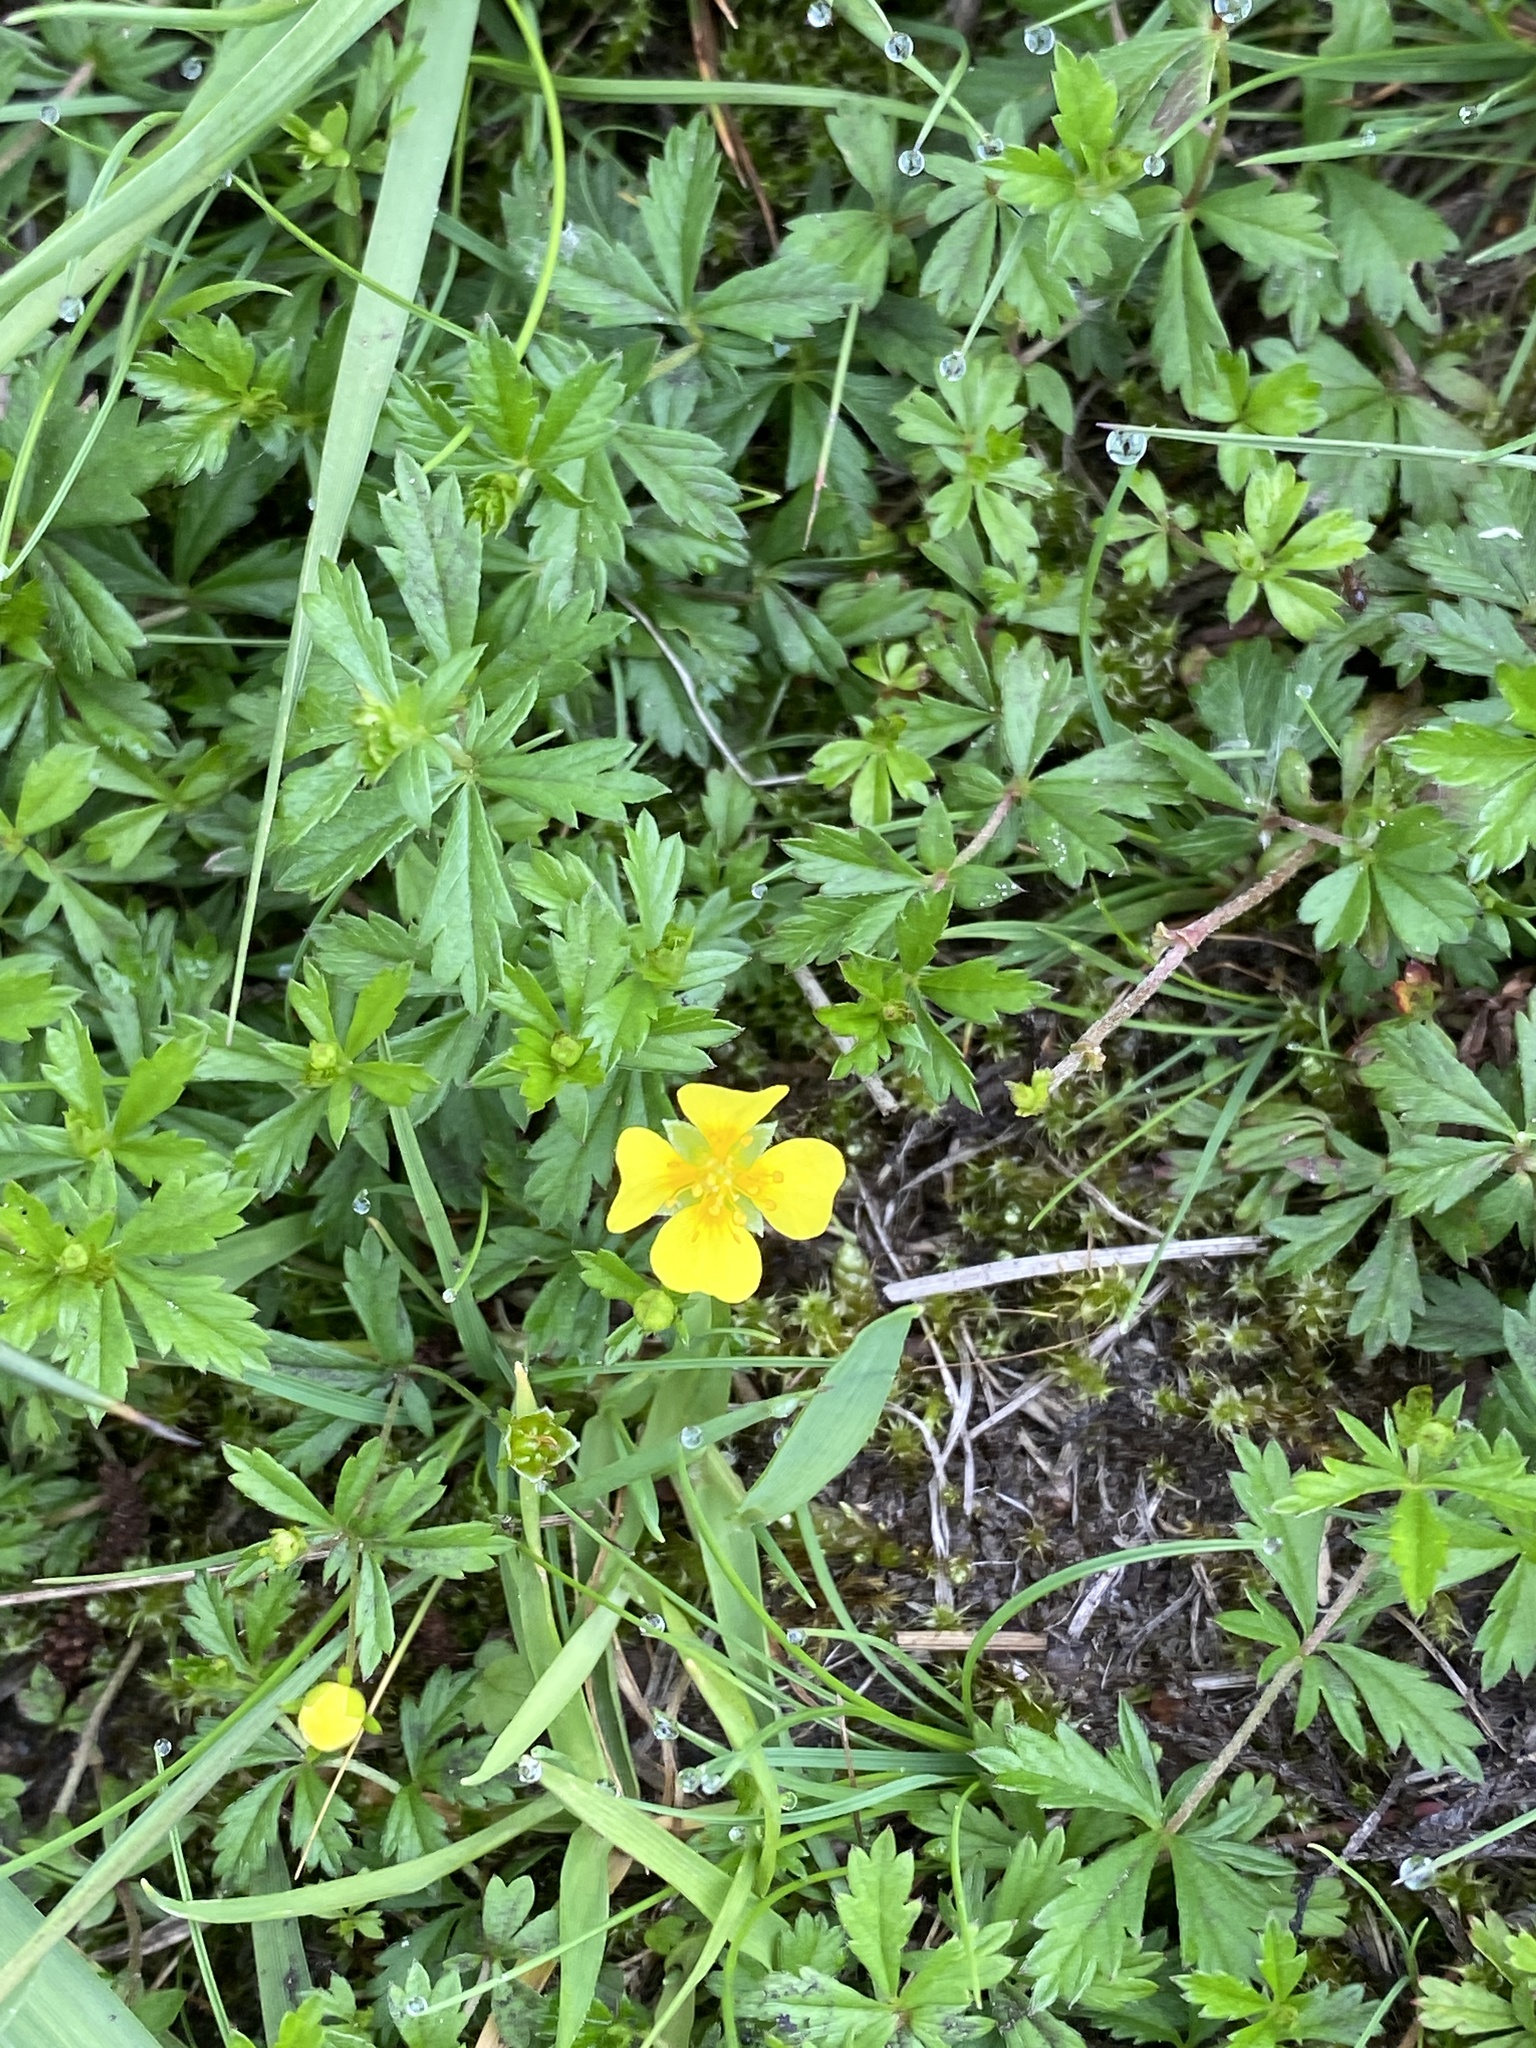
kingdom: Plantae
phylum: Tracheophyta
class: Magnoliopsida
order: Rosales
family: Rosaceae
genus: Potentilla
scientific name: Potentilla erecta
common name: Tormentil
